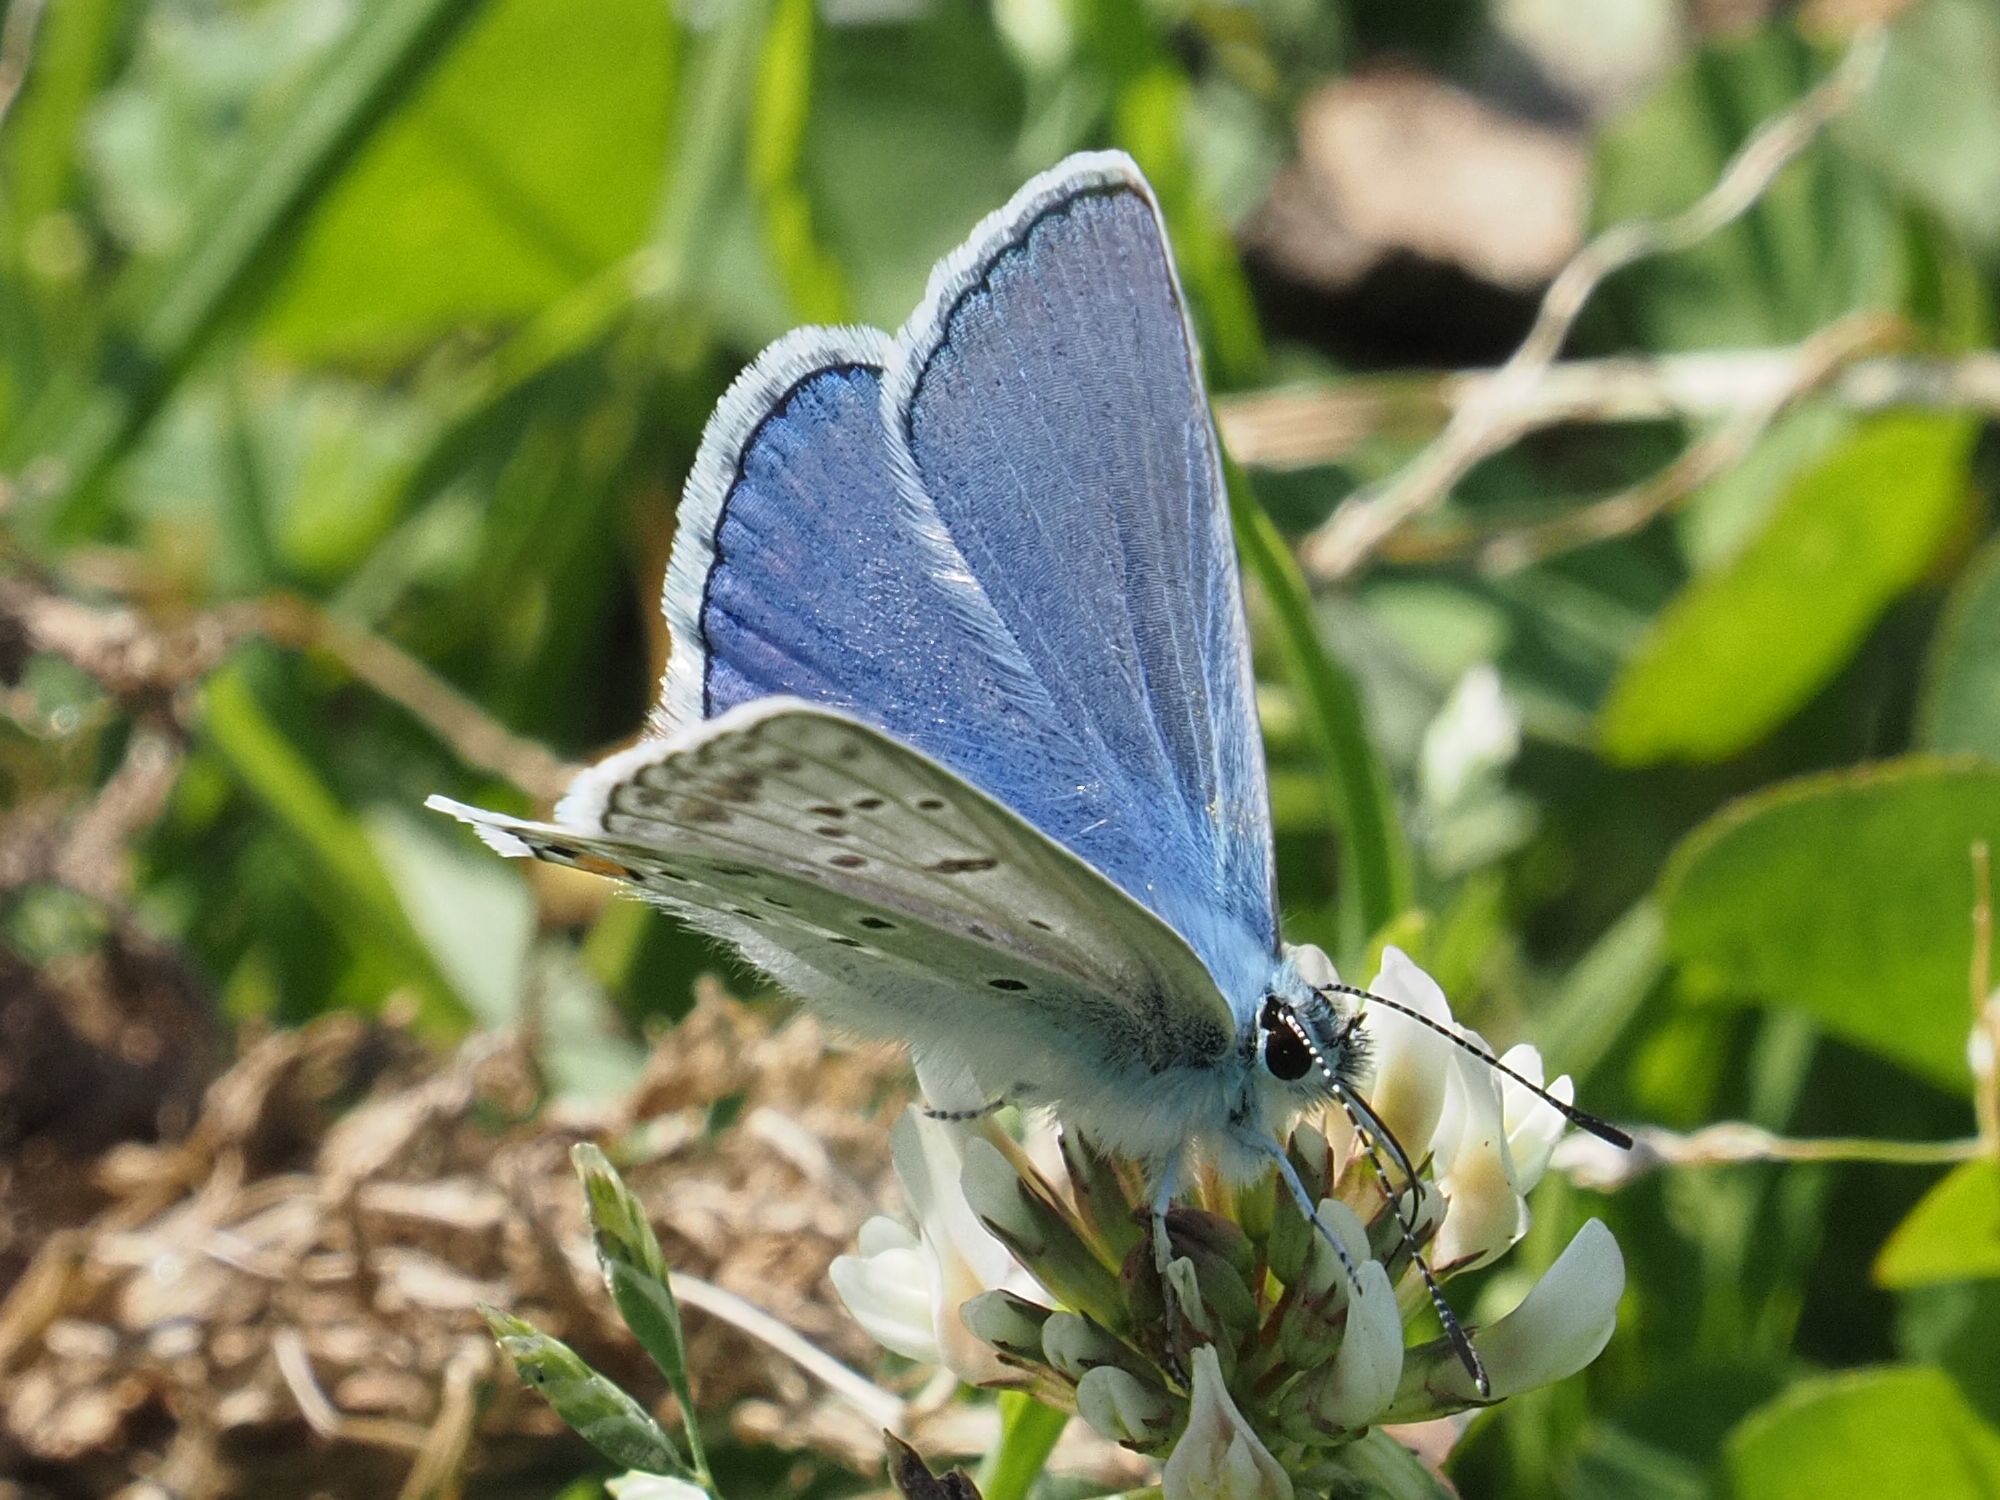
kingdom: Animalia
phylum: Arthropoda
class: Insecta
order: Lepidoptera
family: Lycaenidae
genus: Polyommatus
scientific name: Polyommatus icarus
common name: Common blue
